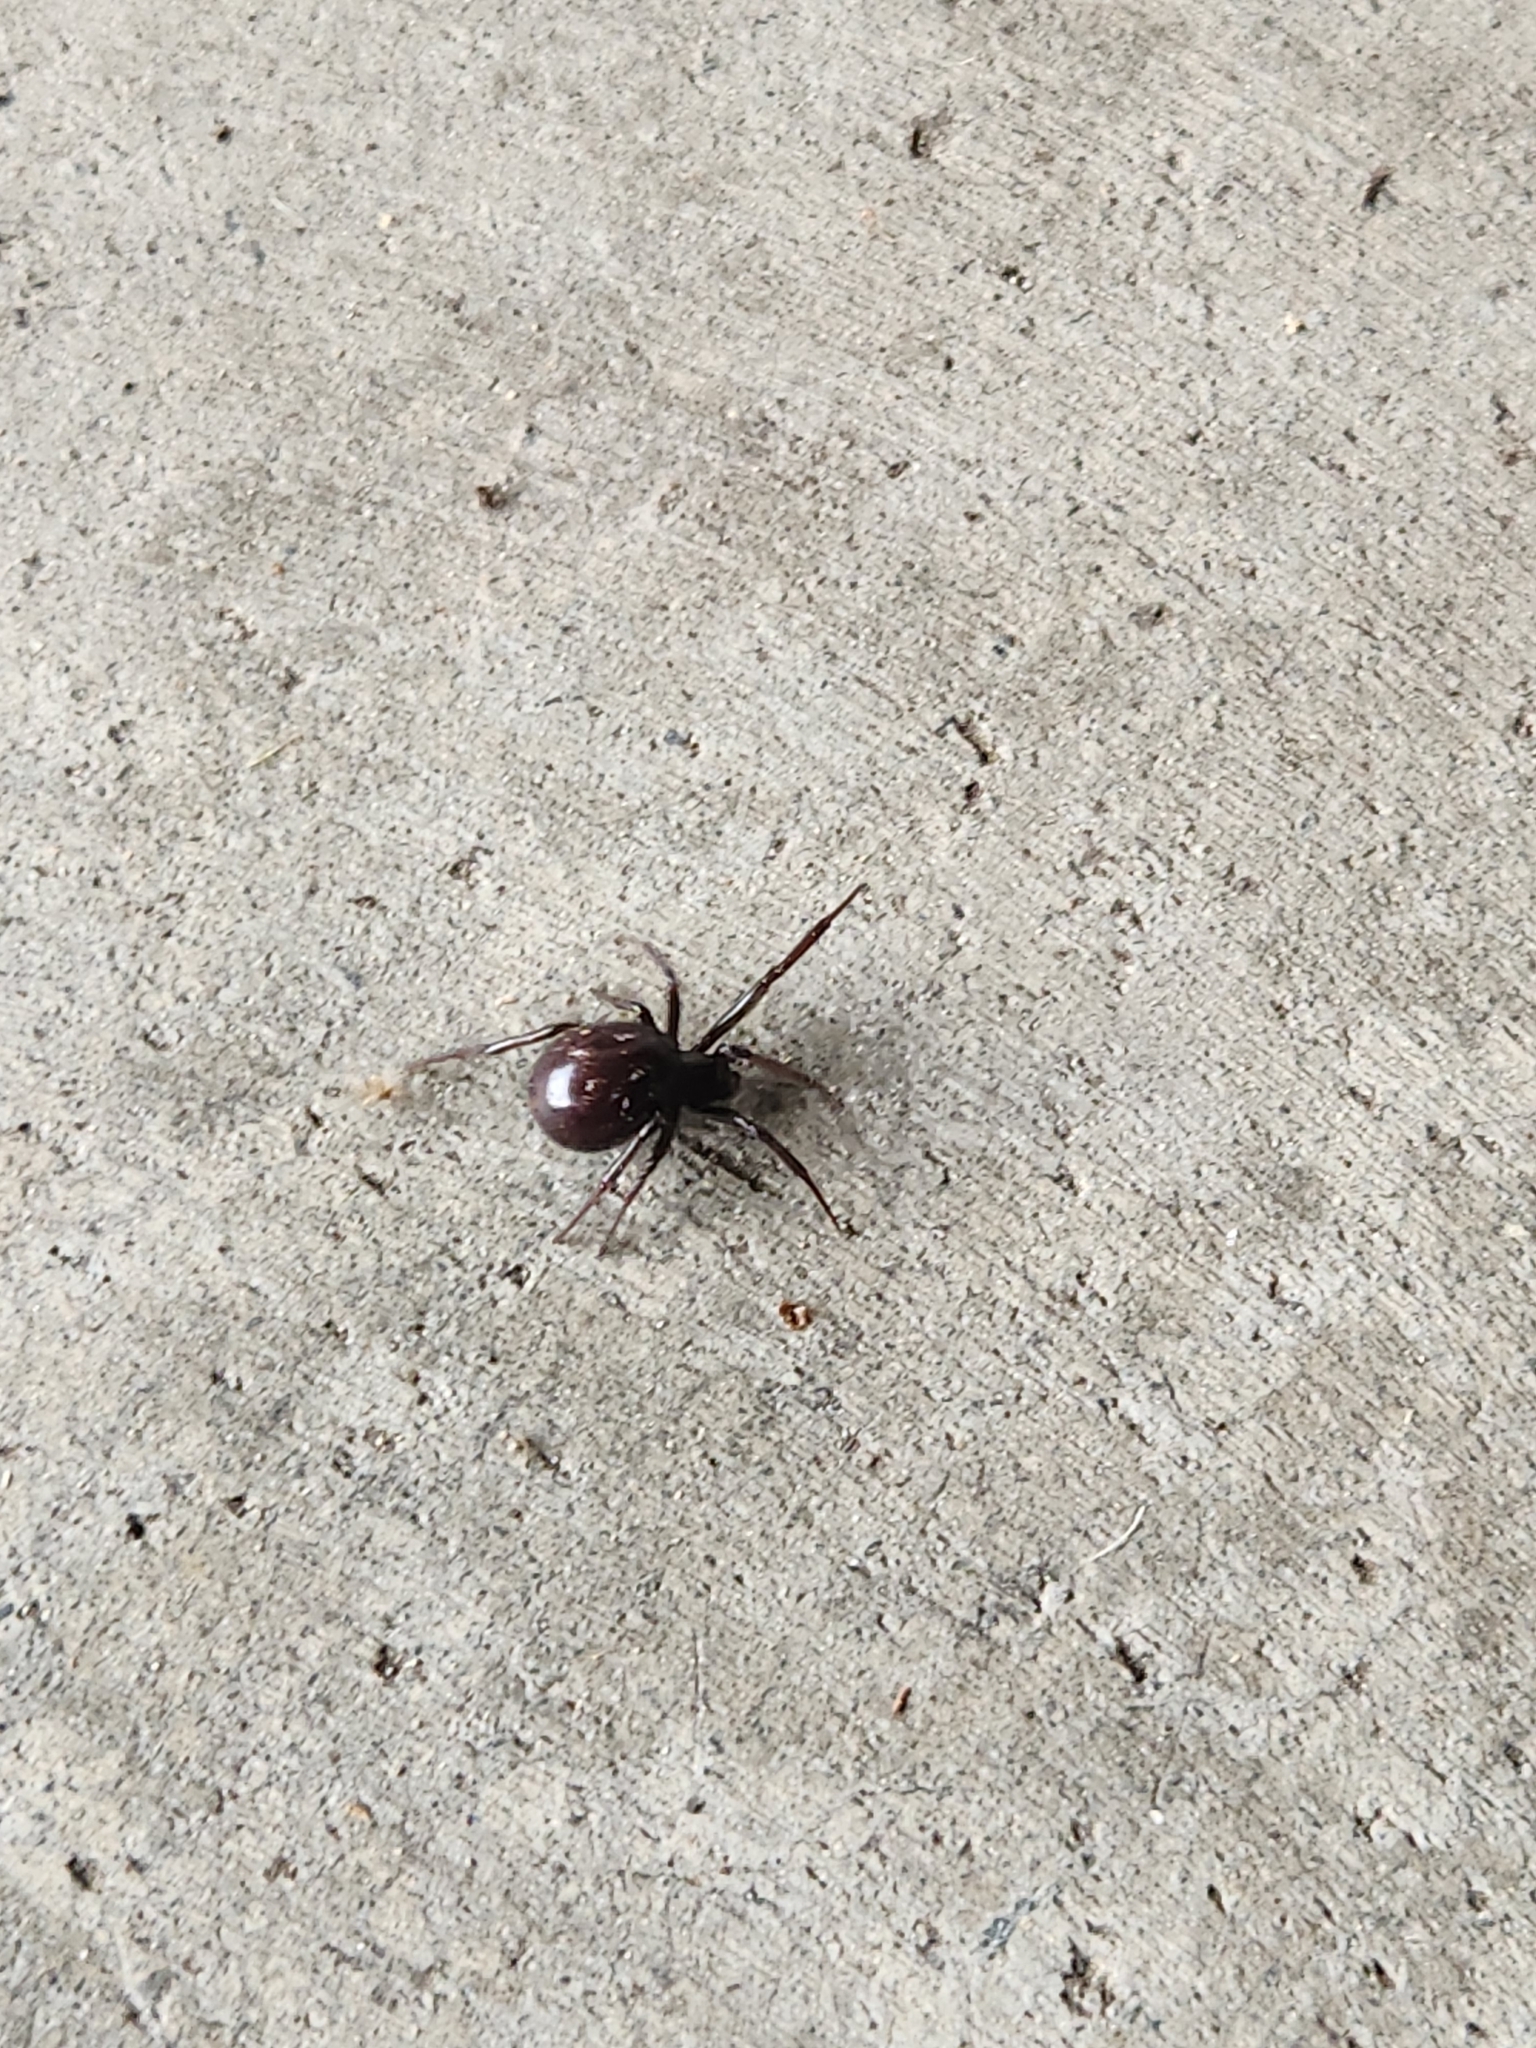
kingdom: Animalia
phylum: Arthropoda
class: Arachnida
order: Araneae
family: Theridiidae
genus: Steatoda
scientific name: Steatoda capensis
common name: Cobweb weaver
